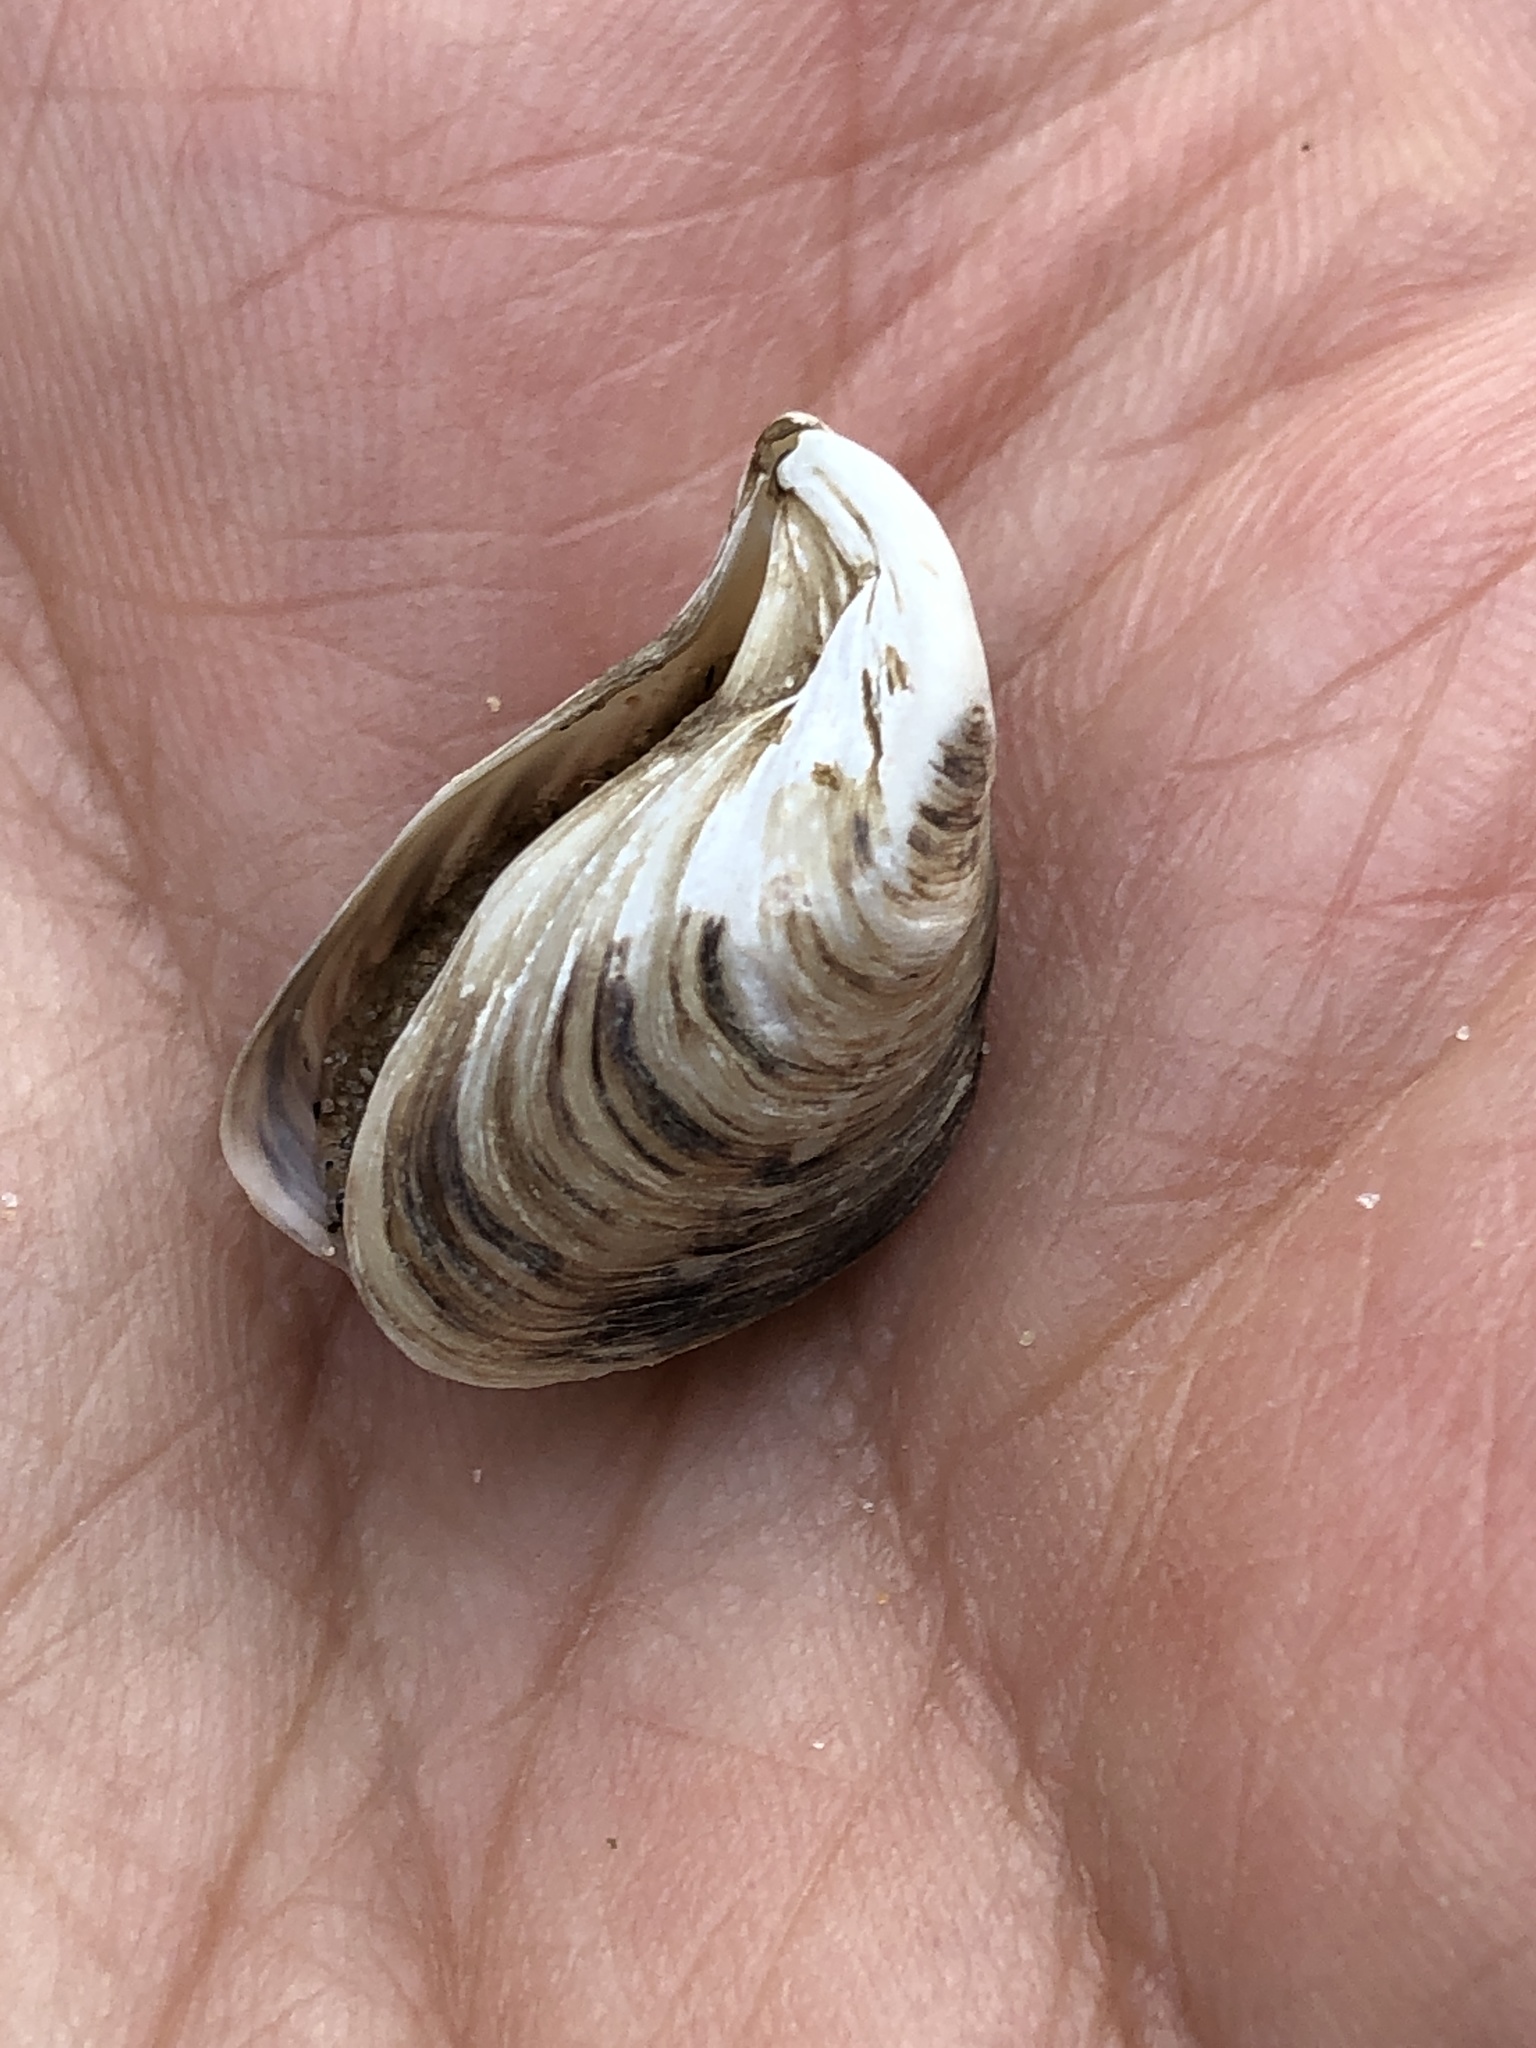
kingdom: Animalia
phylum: Mollusca
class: Bivalvia
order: Myida
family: Dreissenidae
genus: Dreissena
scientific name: Dreissena bugensis
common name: Quagga mussel
